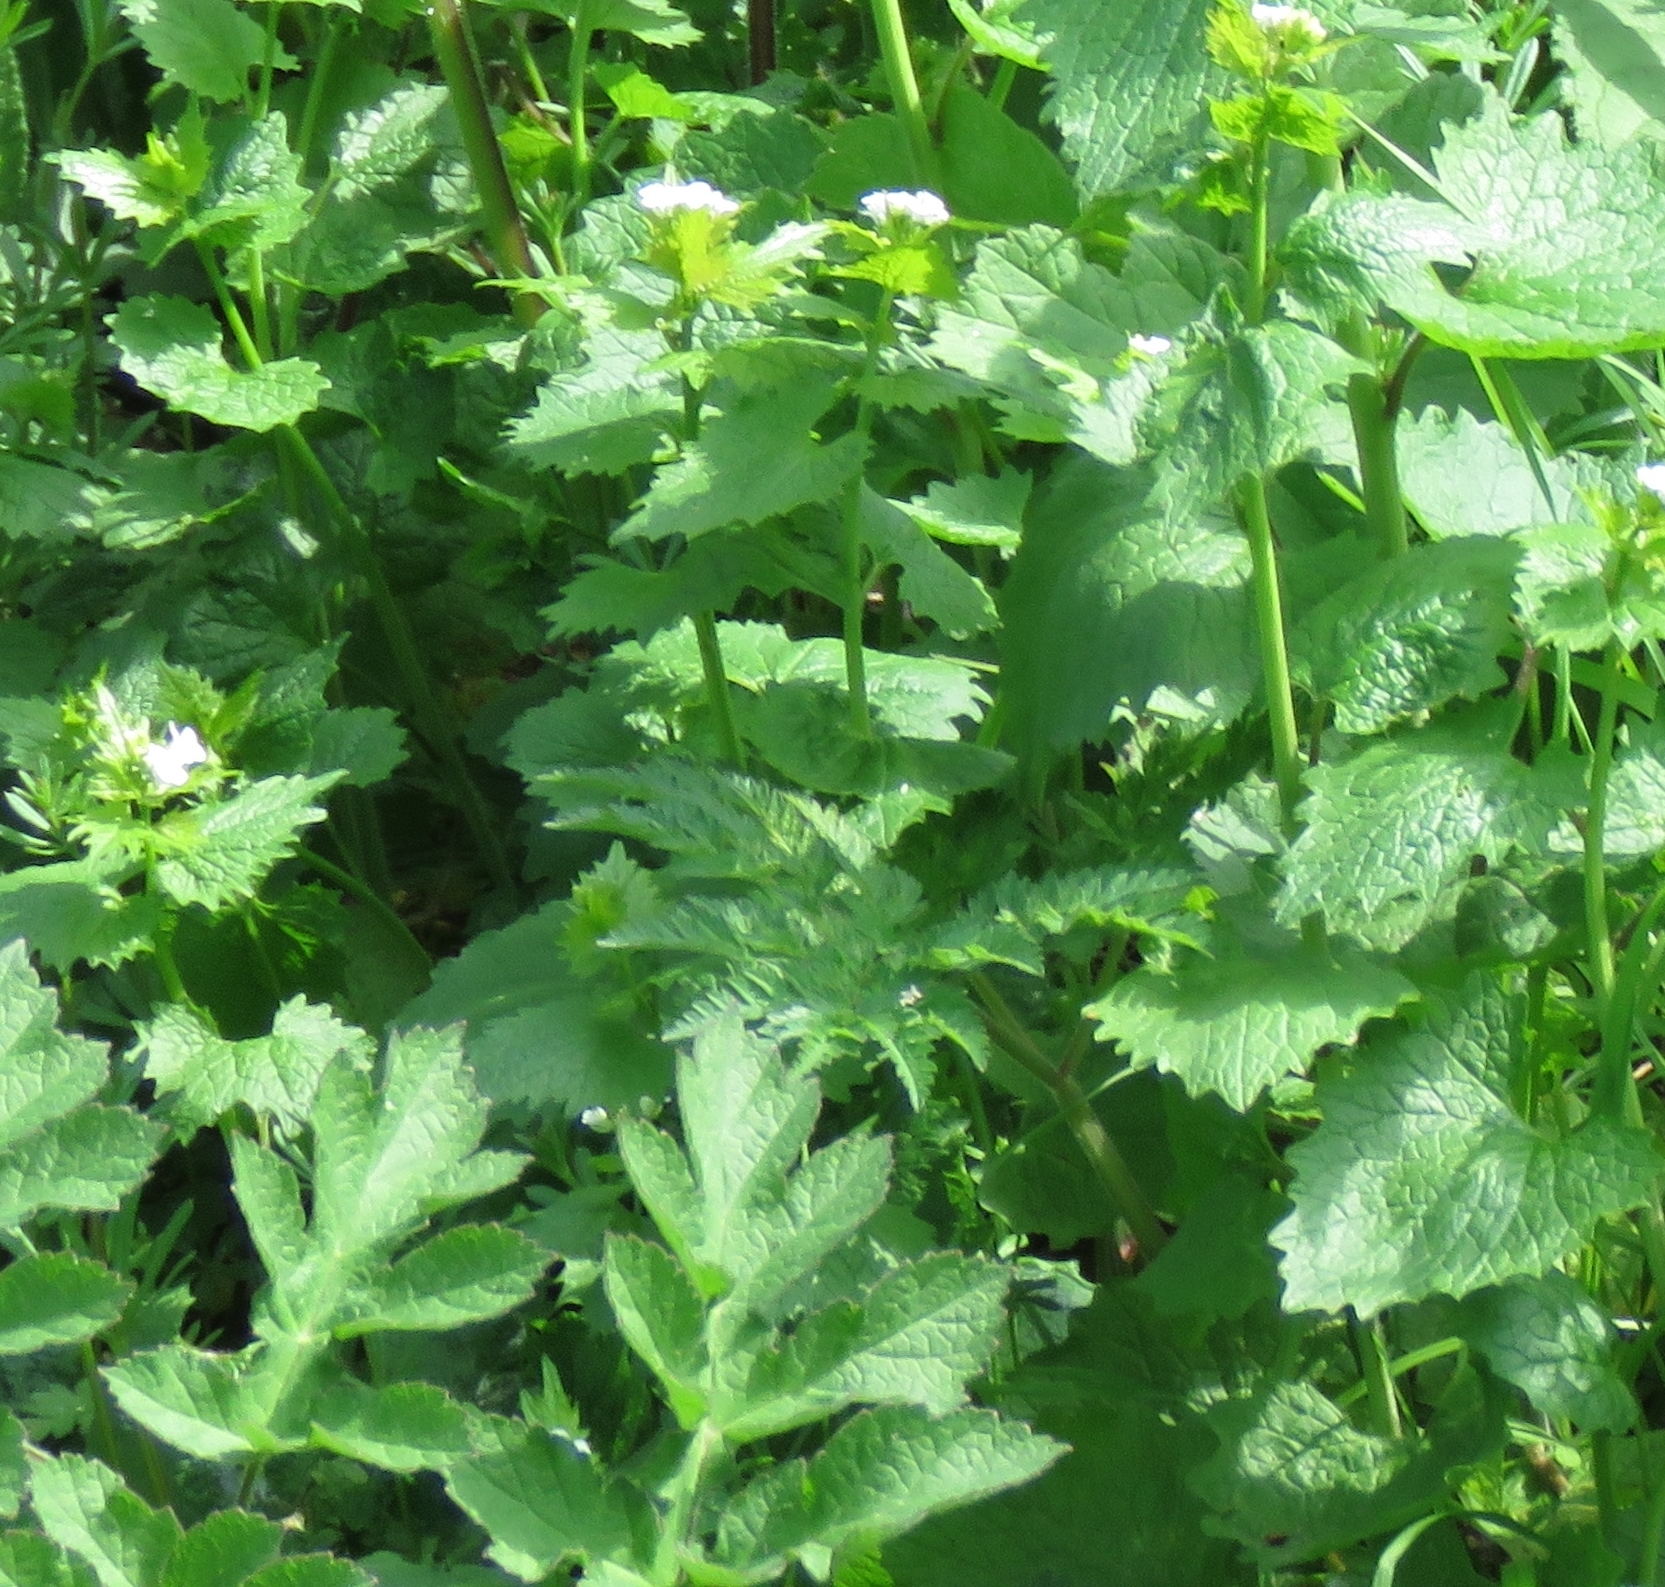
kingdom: Plantae
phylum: Tracheophyta
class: Magnoliopsida
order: Brassicales
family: Brassicaceae
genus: Alliaria
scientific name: Alliaria petiolata
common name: Garlic mustard
